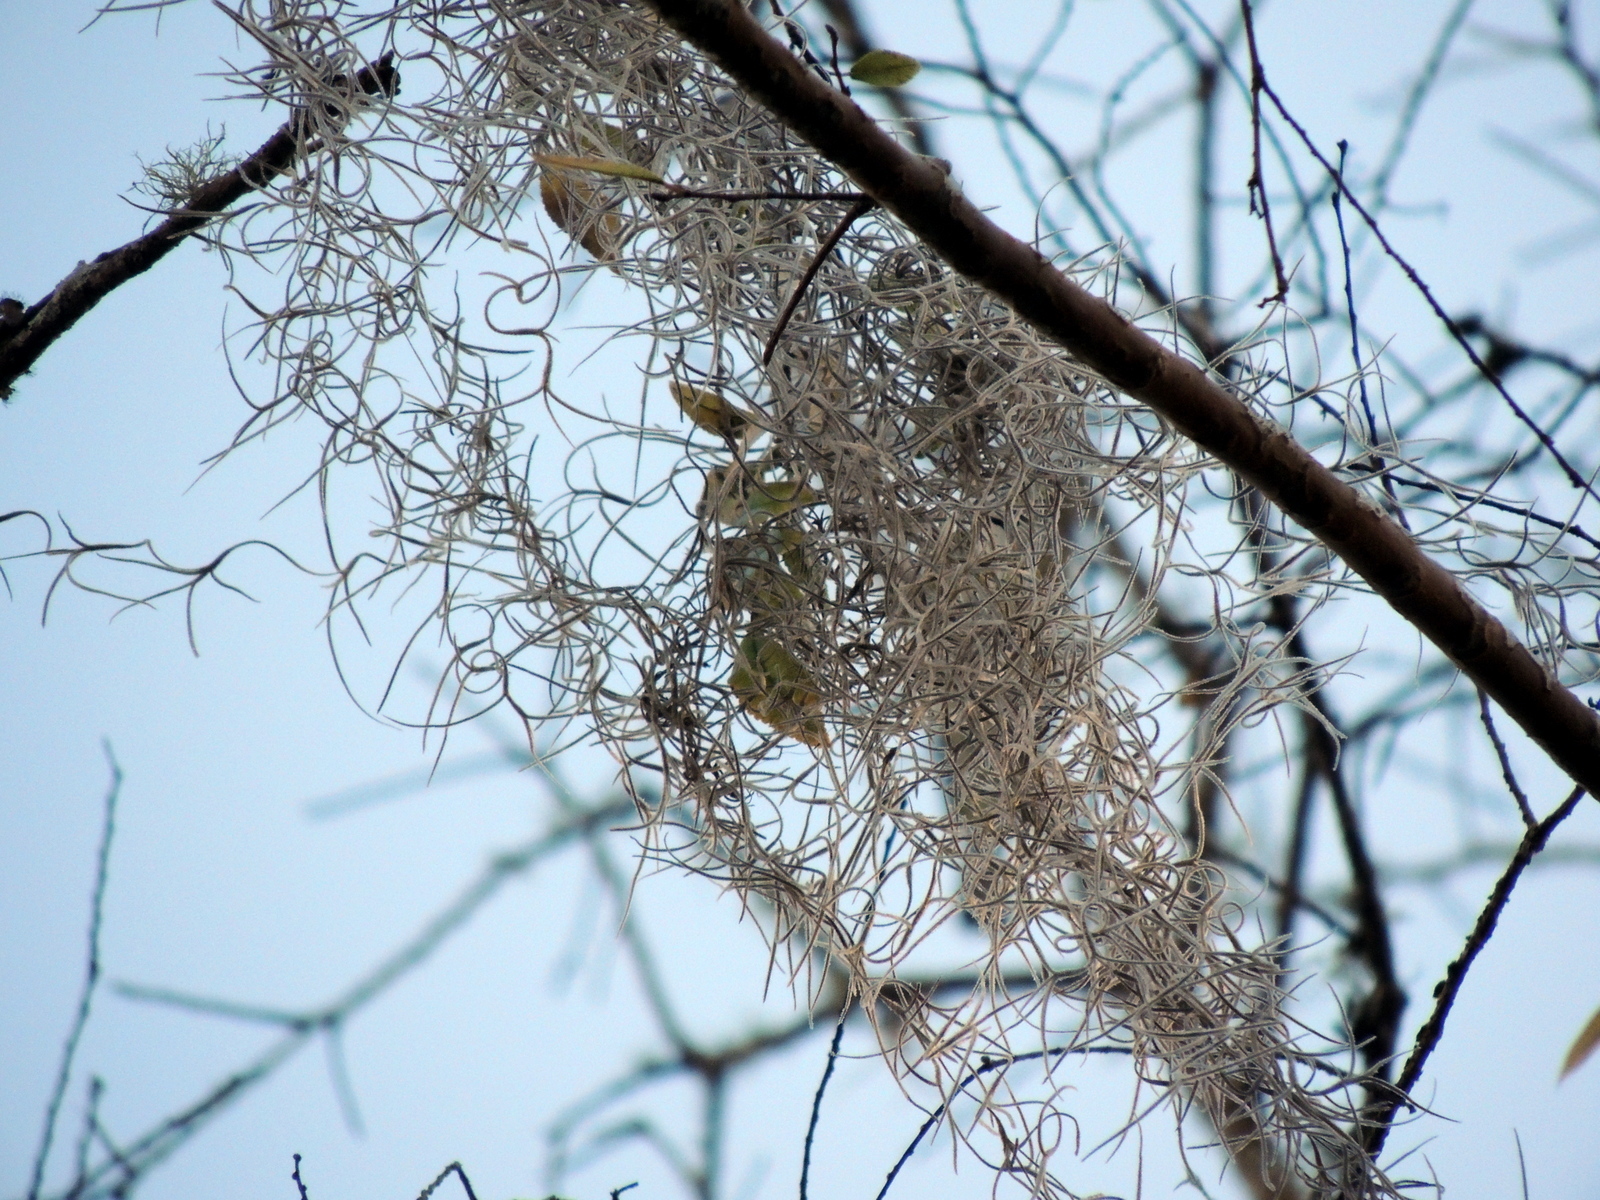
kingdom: Plantae
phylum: Tracheophyta
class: Liliopsida
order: Poales
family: Bromeliaceae
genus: Tillandsia
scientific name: Tillandsia usneoides
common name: Spanish moss
